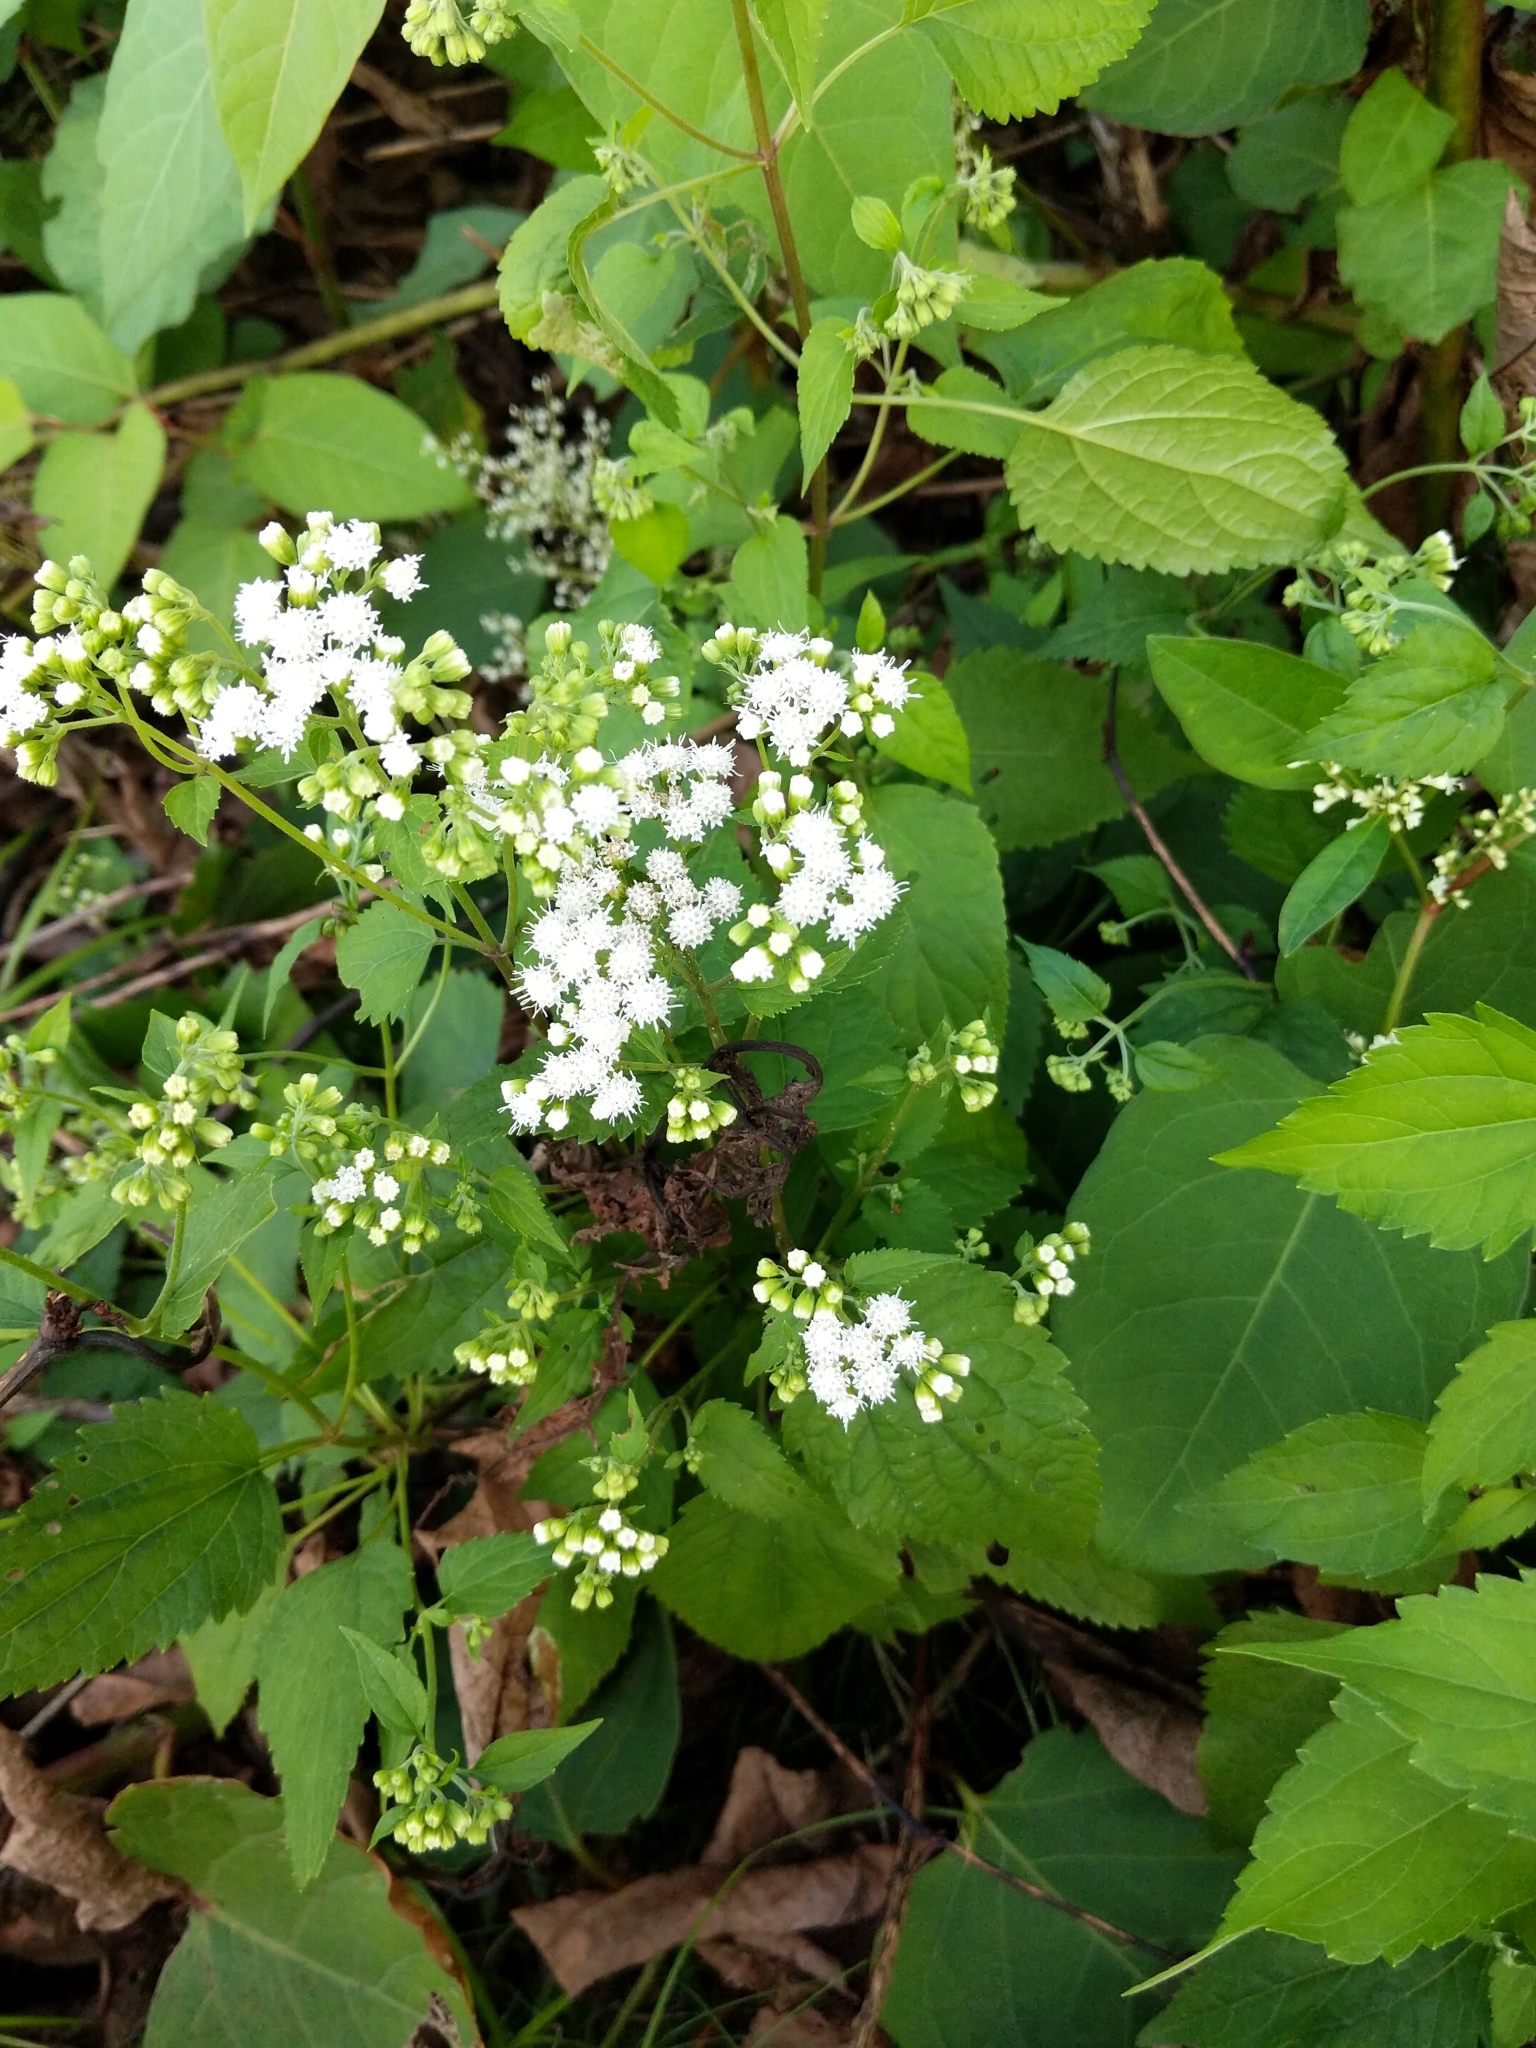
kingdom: Plantae
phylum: Tracheophyta
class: Magnoliopsida
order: Asterales
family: Asteraceae
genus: Ageratina
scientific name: Ageratina altissima
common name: White snakeroot
